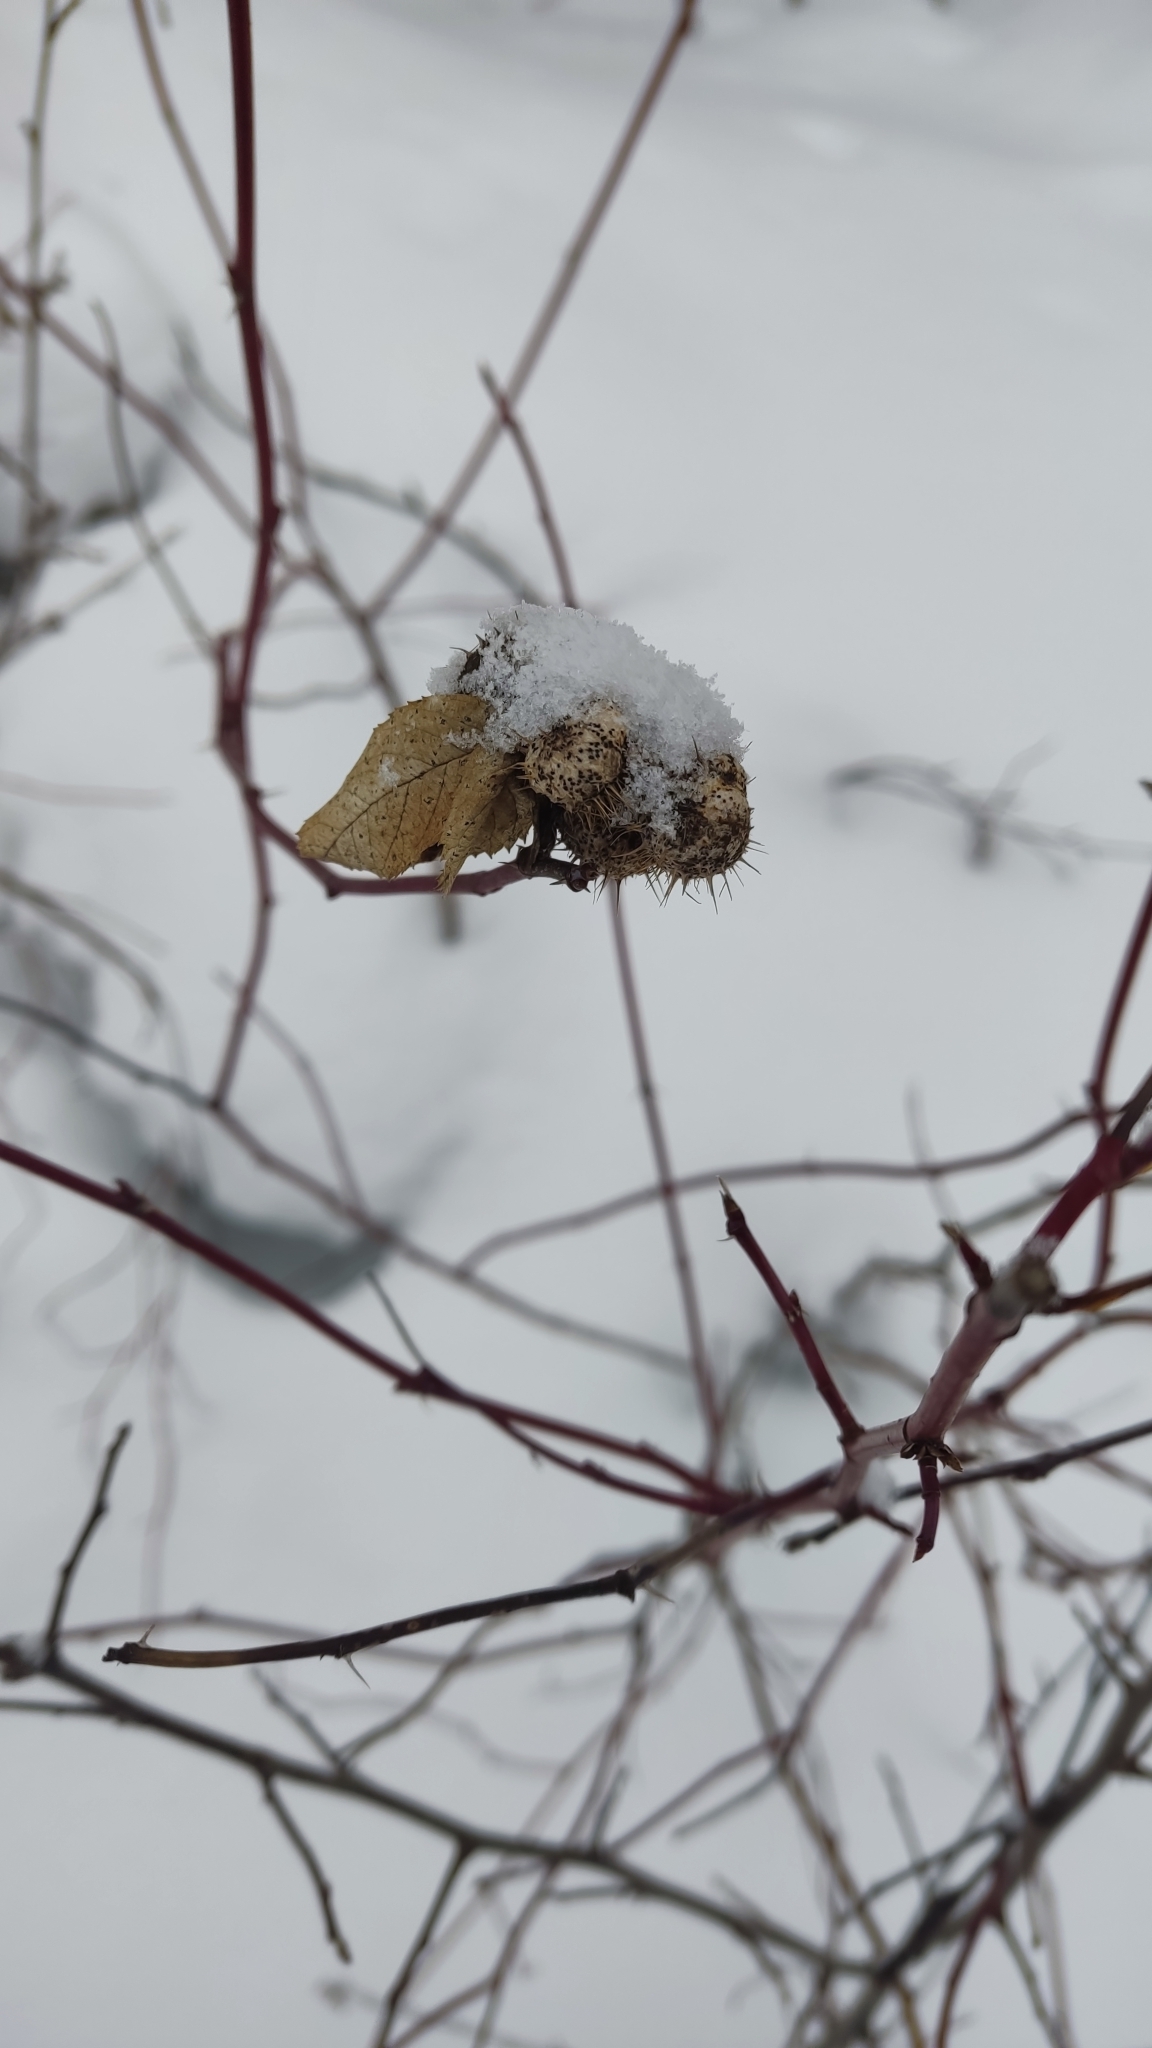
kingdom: Animalia
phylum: Arthropoda
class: Insecta
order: Hymenoptera
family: Cynipidae
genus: Diplolepis
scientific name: Diplolepis mayri
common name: Gall wasp
